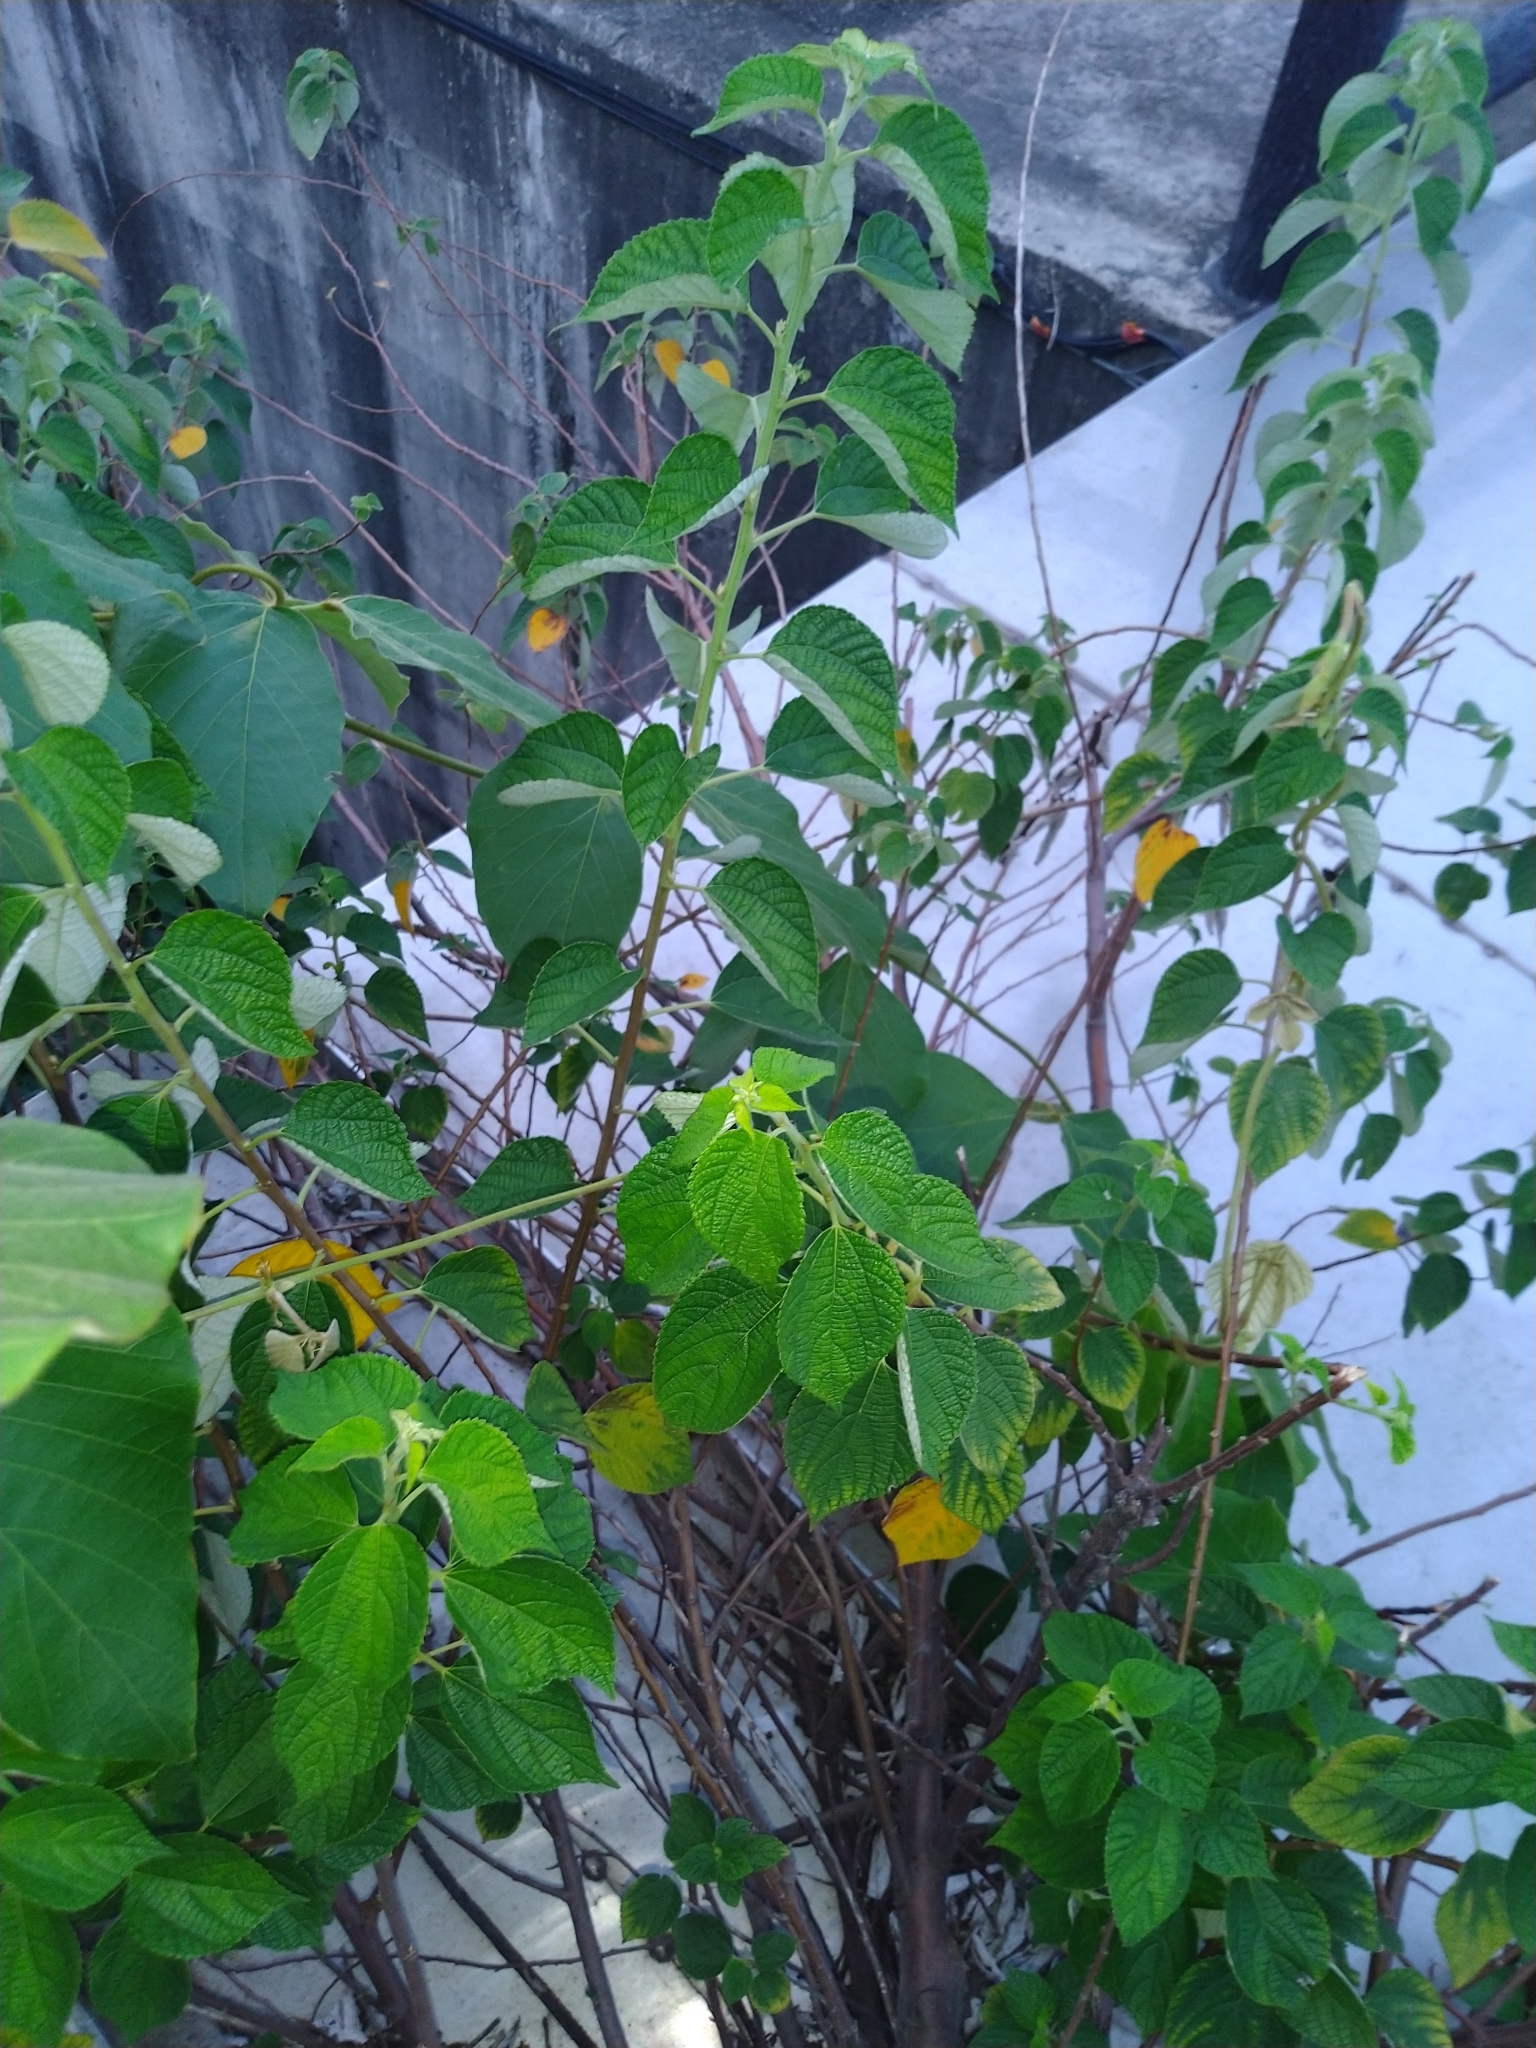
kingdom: Plantae
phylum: Tracheophyta
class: Magnoliopsida
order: Rosales
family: Urticaceae
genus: Boehmeria
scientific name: Boehmeria nivea
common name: Ramie chinese grass
